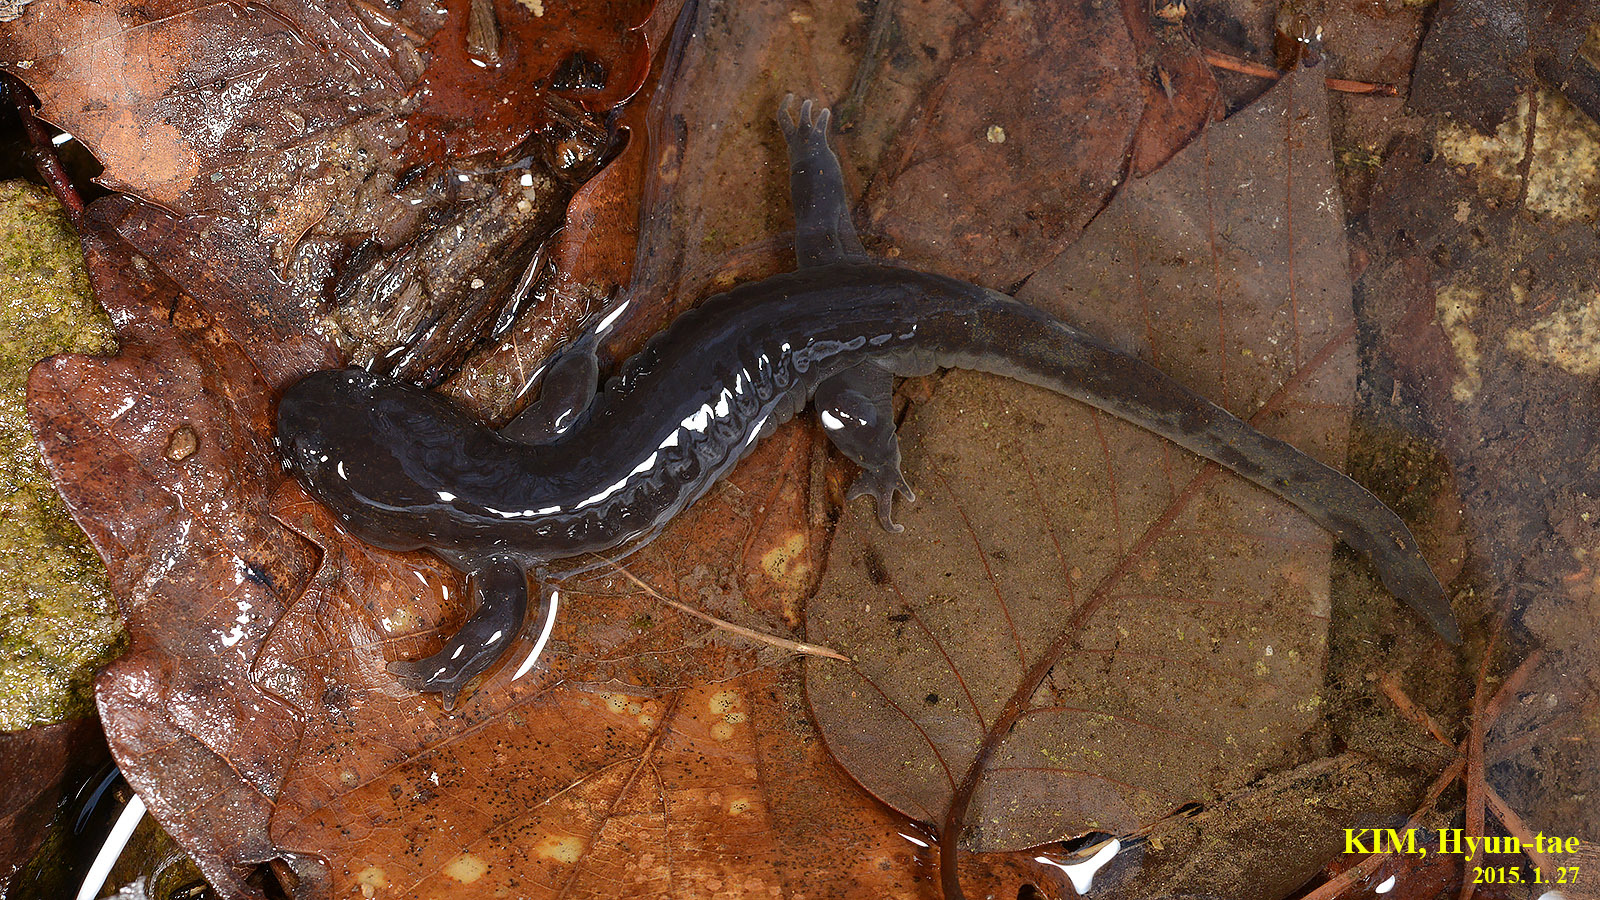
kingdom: Animalia
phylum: Chordata
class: Amphibia
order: Caudata
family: Hynobiidae
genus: Hynobius
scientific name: Hynobius leechii
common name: Gensan salamander
